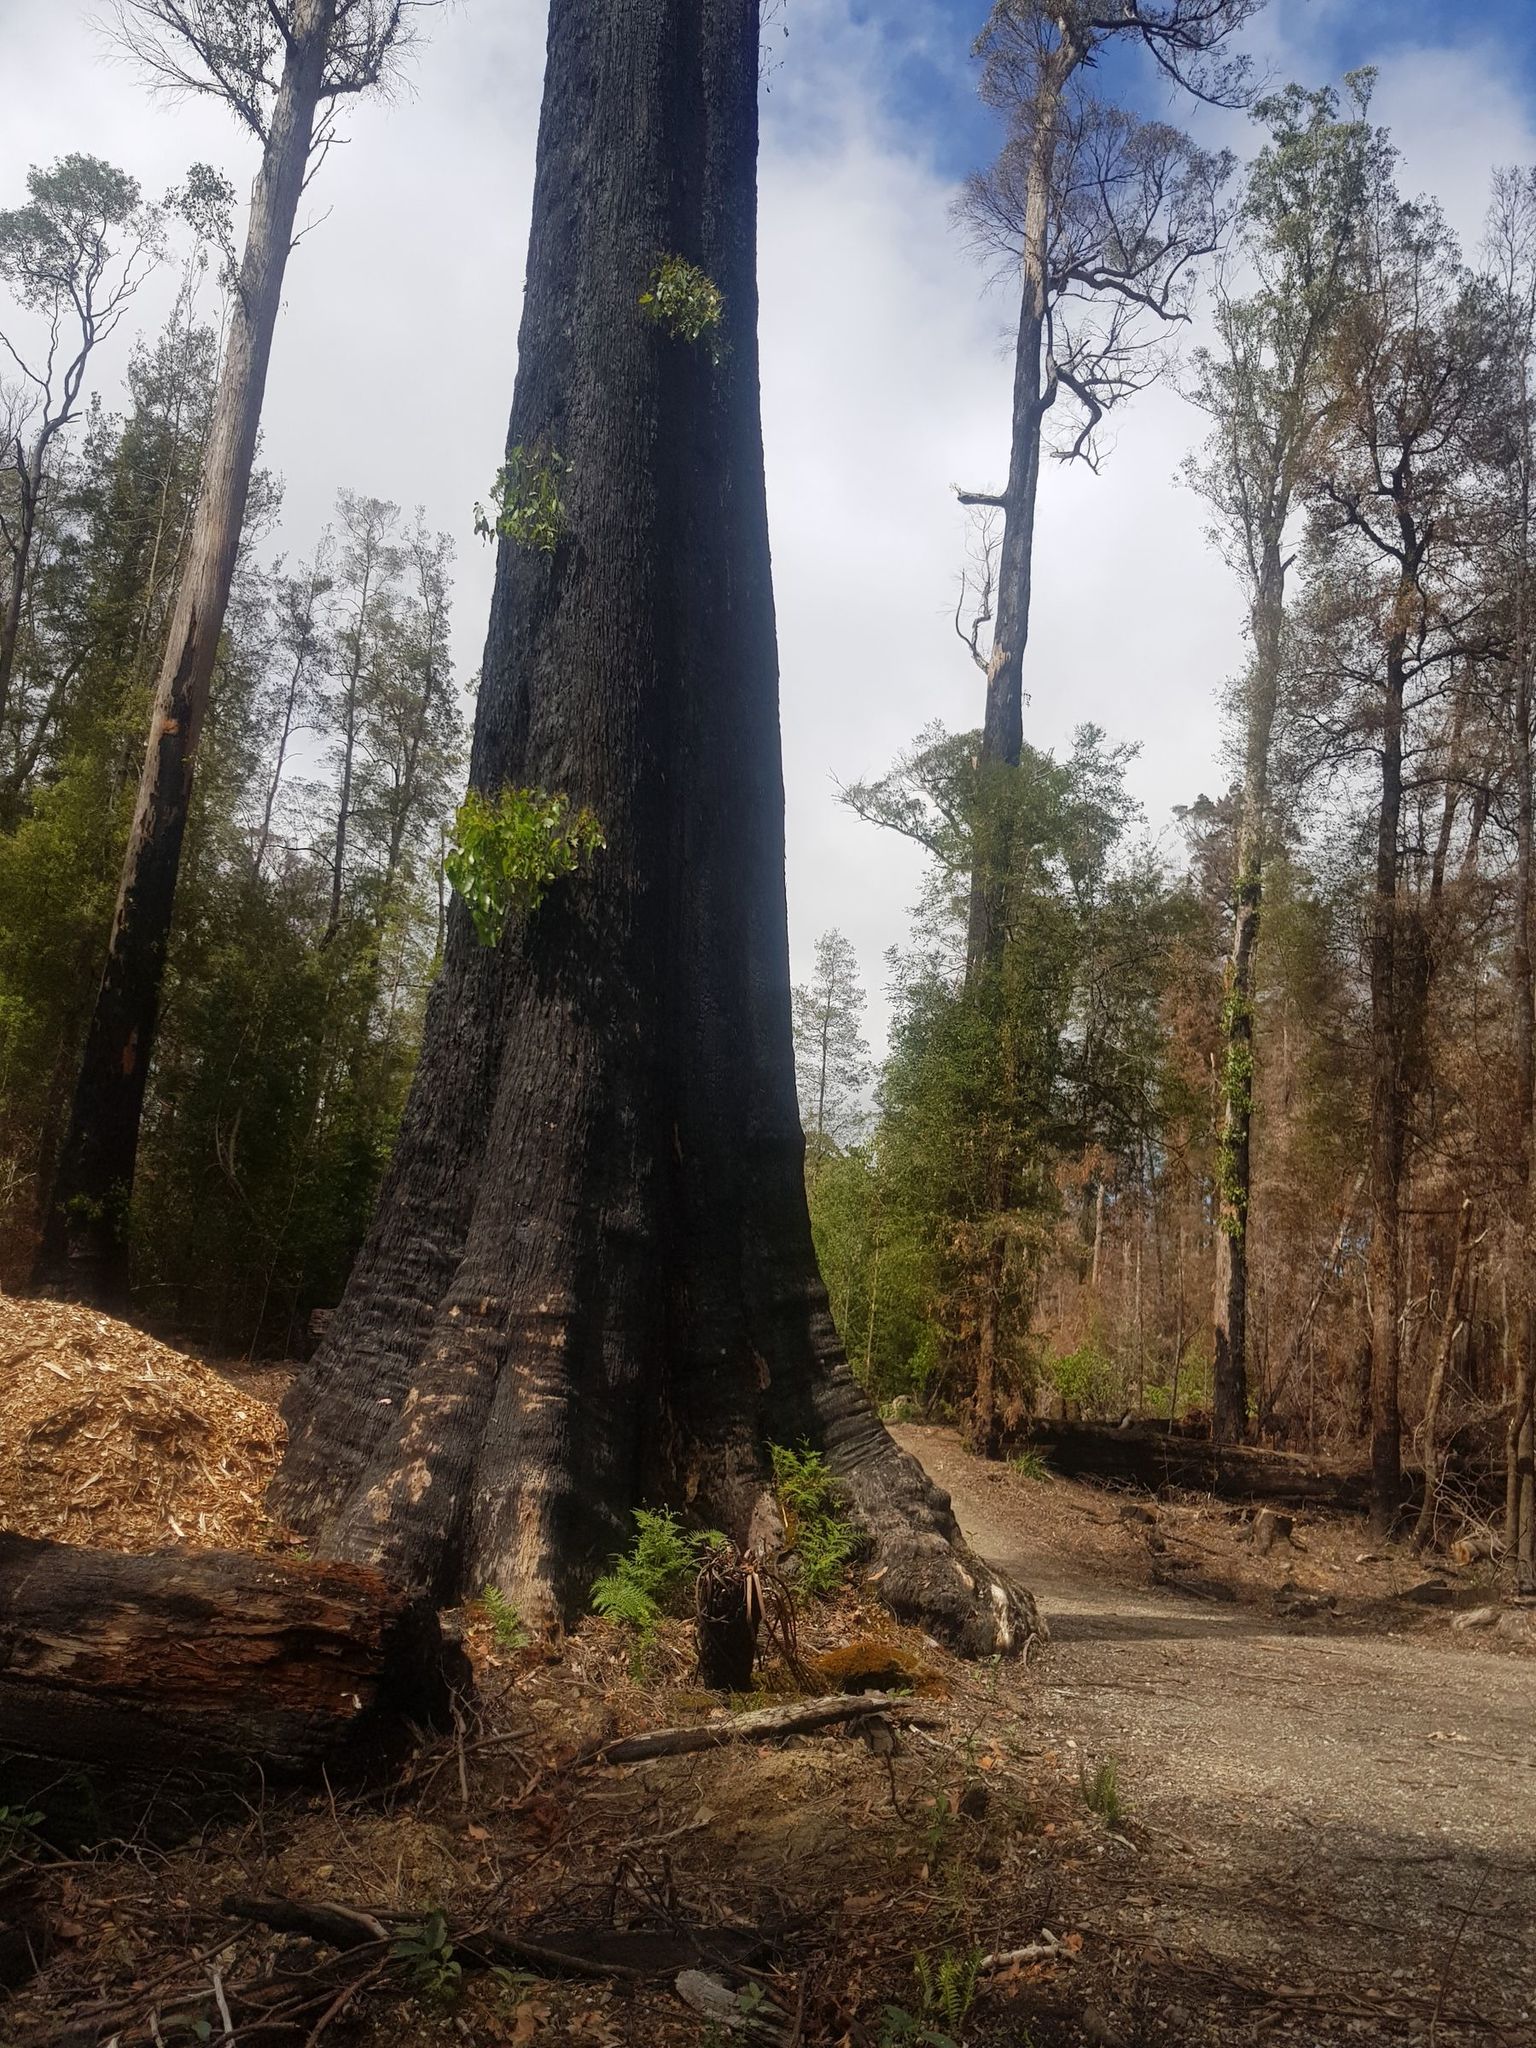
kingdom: Plantae
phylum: Tracheophyta
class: Magnoliopsida
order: Myrtales
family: Myrtaceae
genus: Eucalyptus
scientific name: Eucalyptus obliqua
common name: Messmate stringybark
